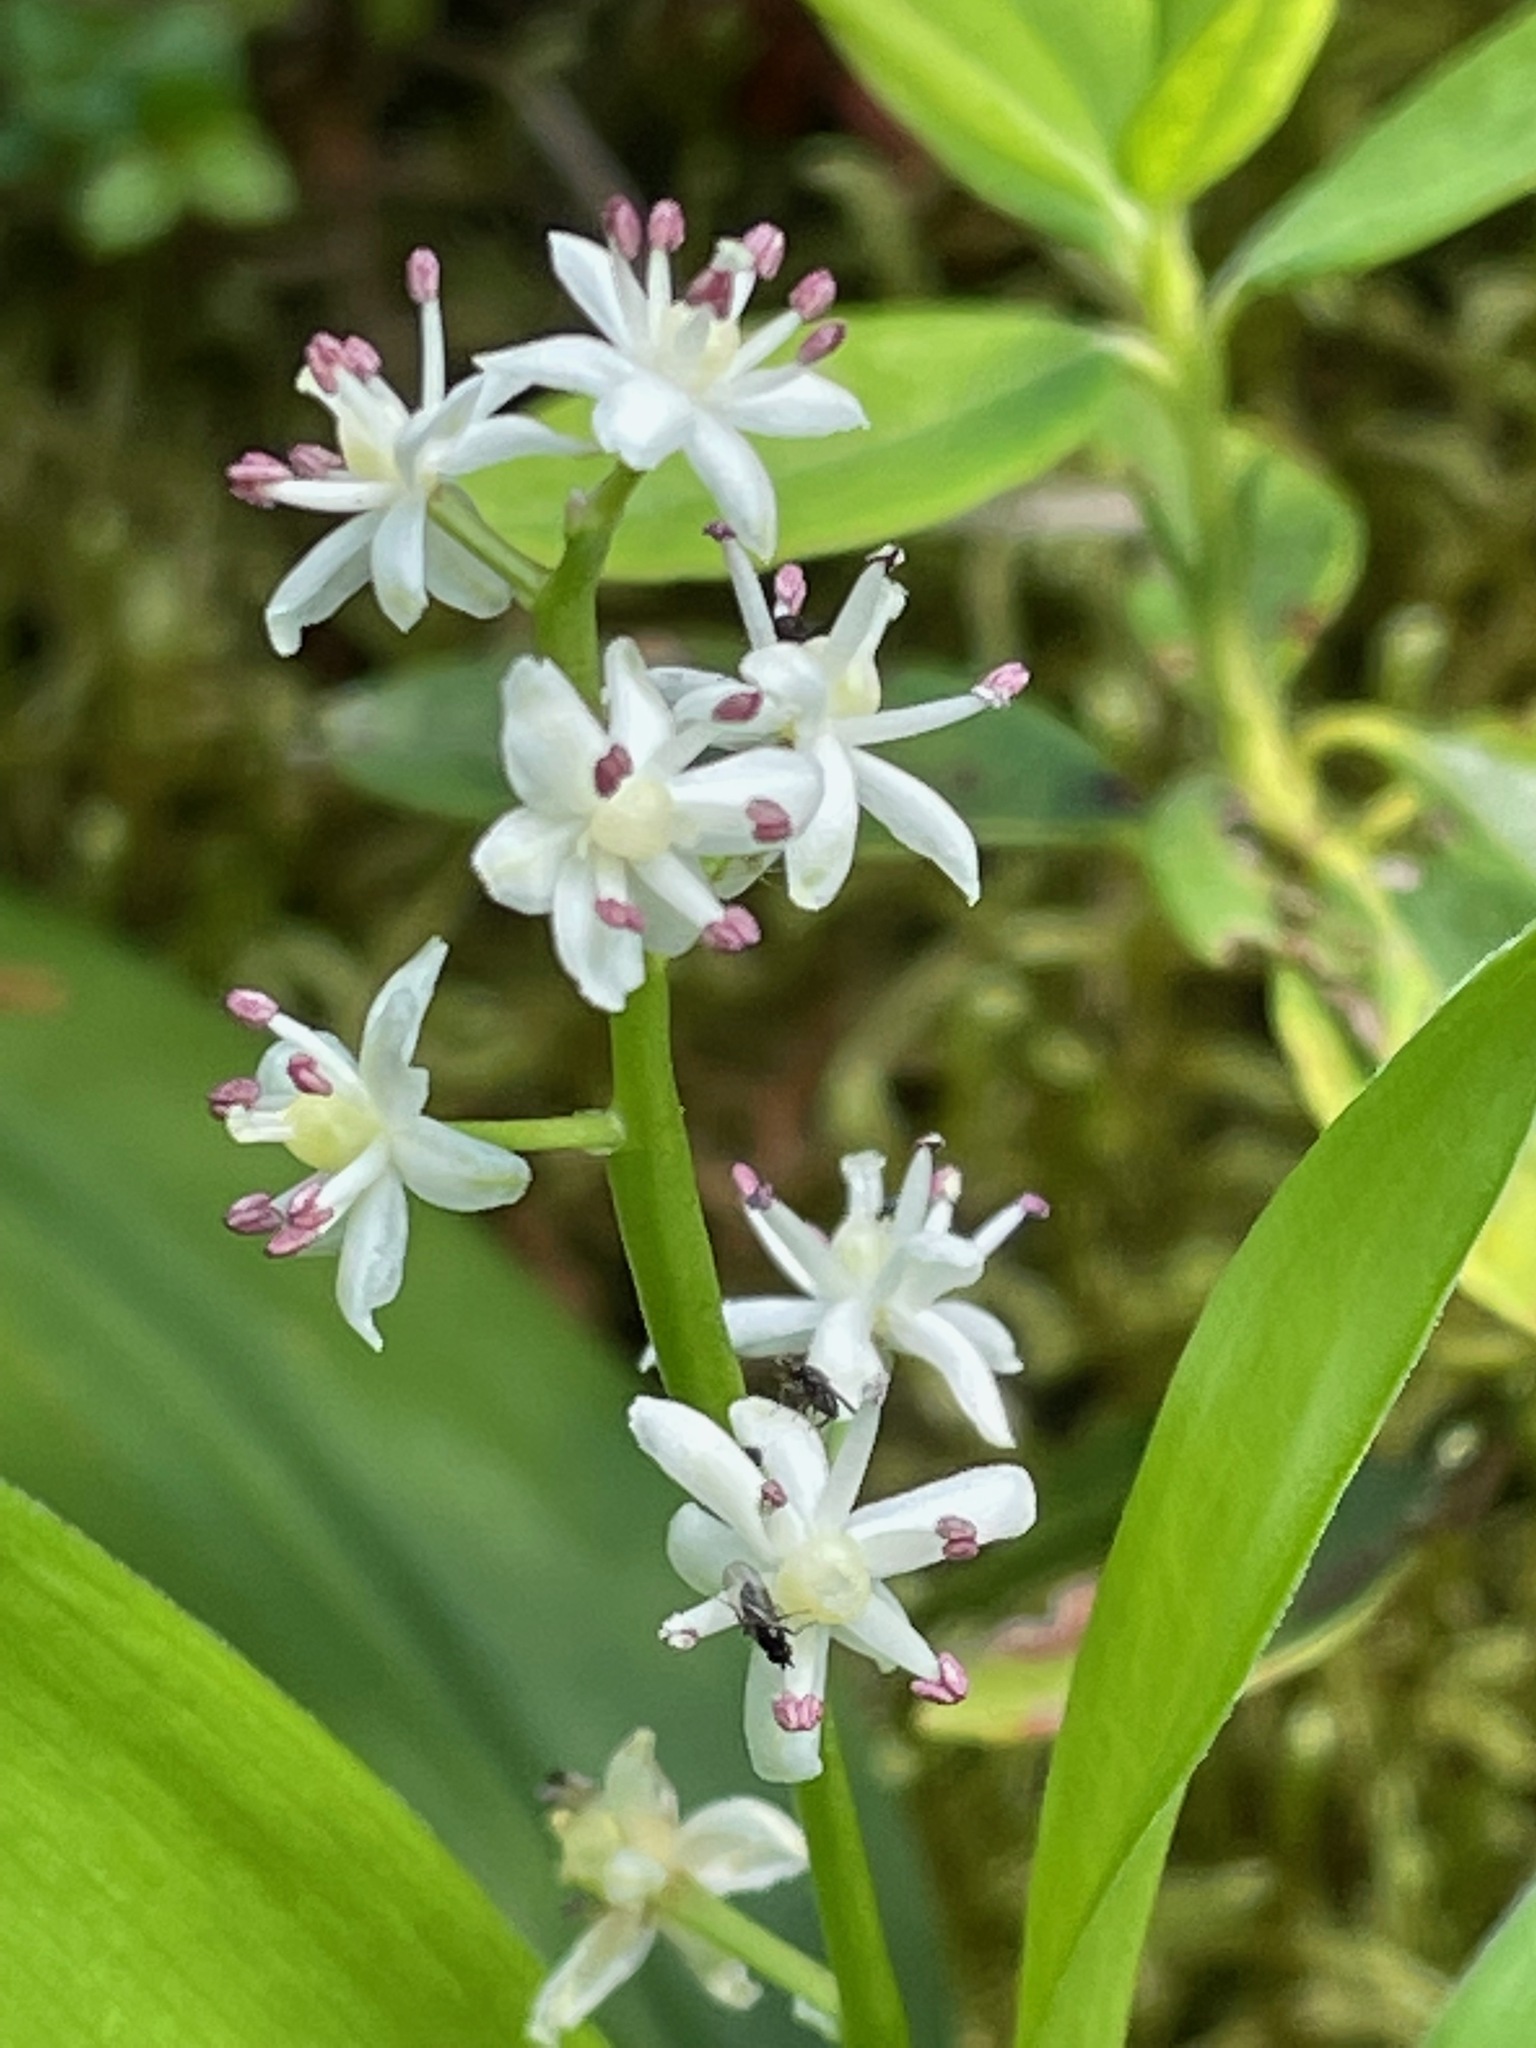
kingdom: Plantae
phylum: Tracheophyta
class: Liliopsida
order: Asparagales
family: Asparagaceae
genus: Maianthemum
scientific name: Maianthemum trifolium
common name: Swamp false solomon's seal
